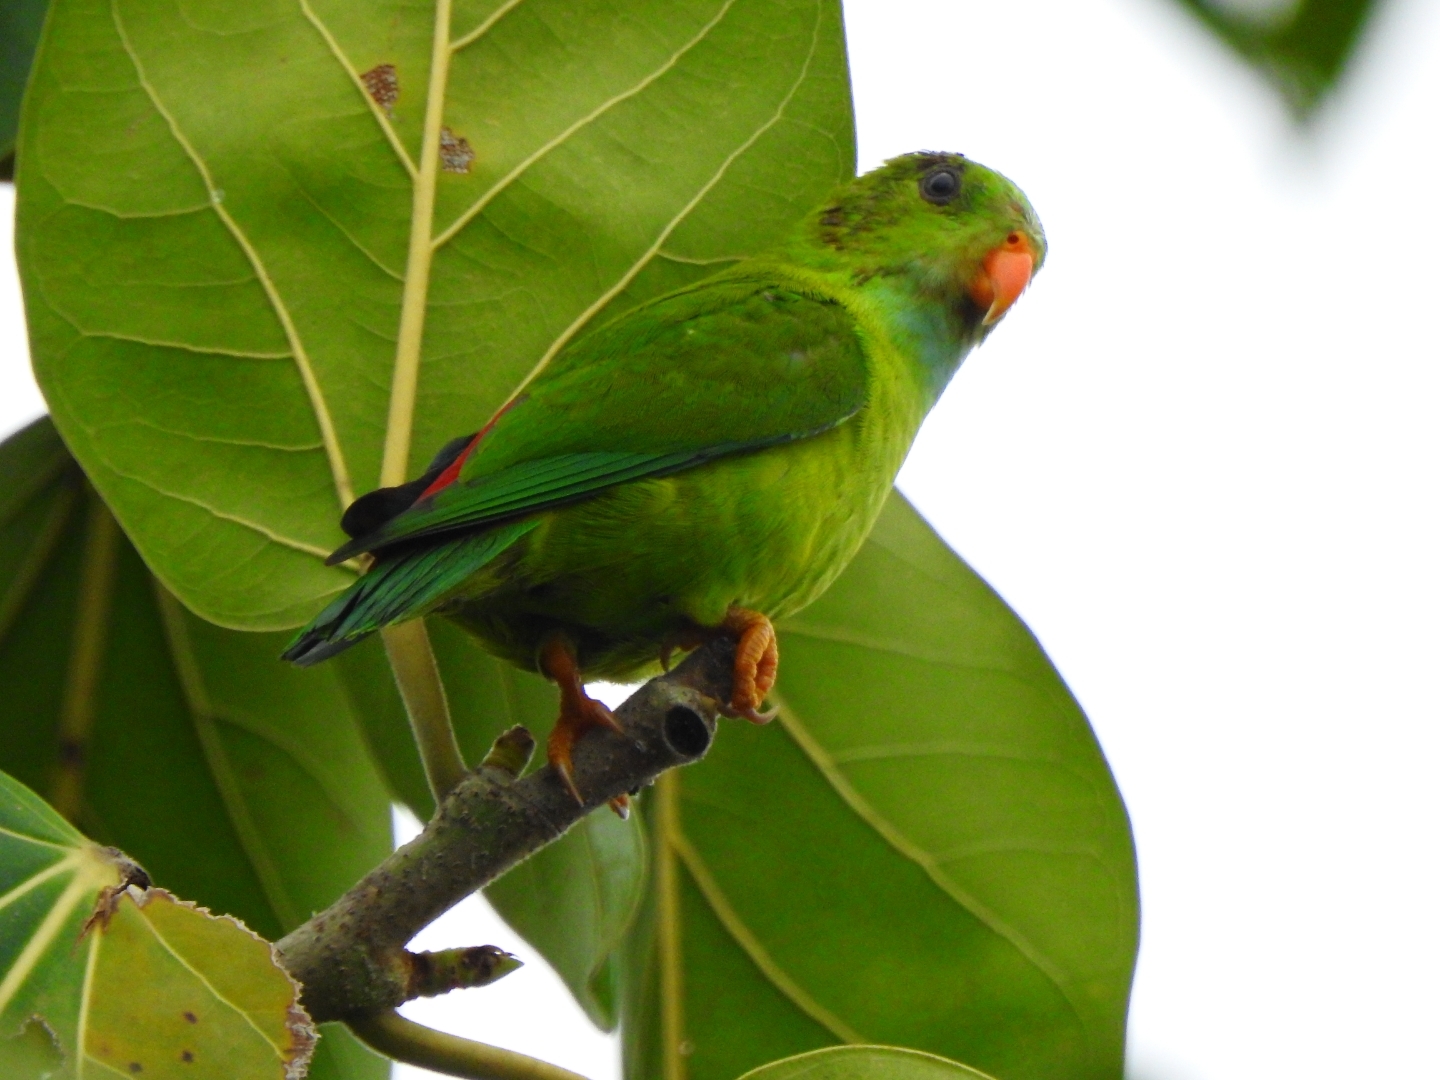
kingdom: Animalia
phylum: Chordata
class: Aves
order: Psittaciformes
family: Psittacidae
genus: Loriculus
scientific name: Loriculus vernalis
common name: Vernal hanging parrot
